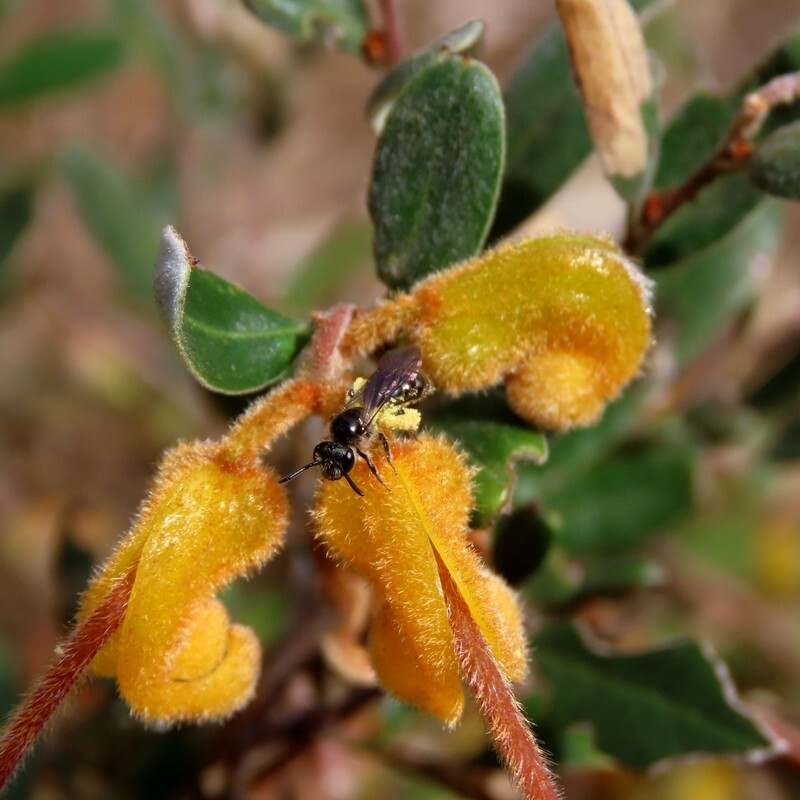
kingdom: Plantae
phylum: Tracheophyta
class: Magnoliopsida
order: Proteales
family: Proteaceae
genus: Grevillea
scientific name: Grevillea chrysophaea
